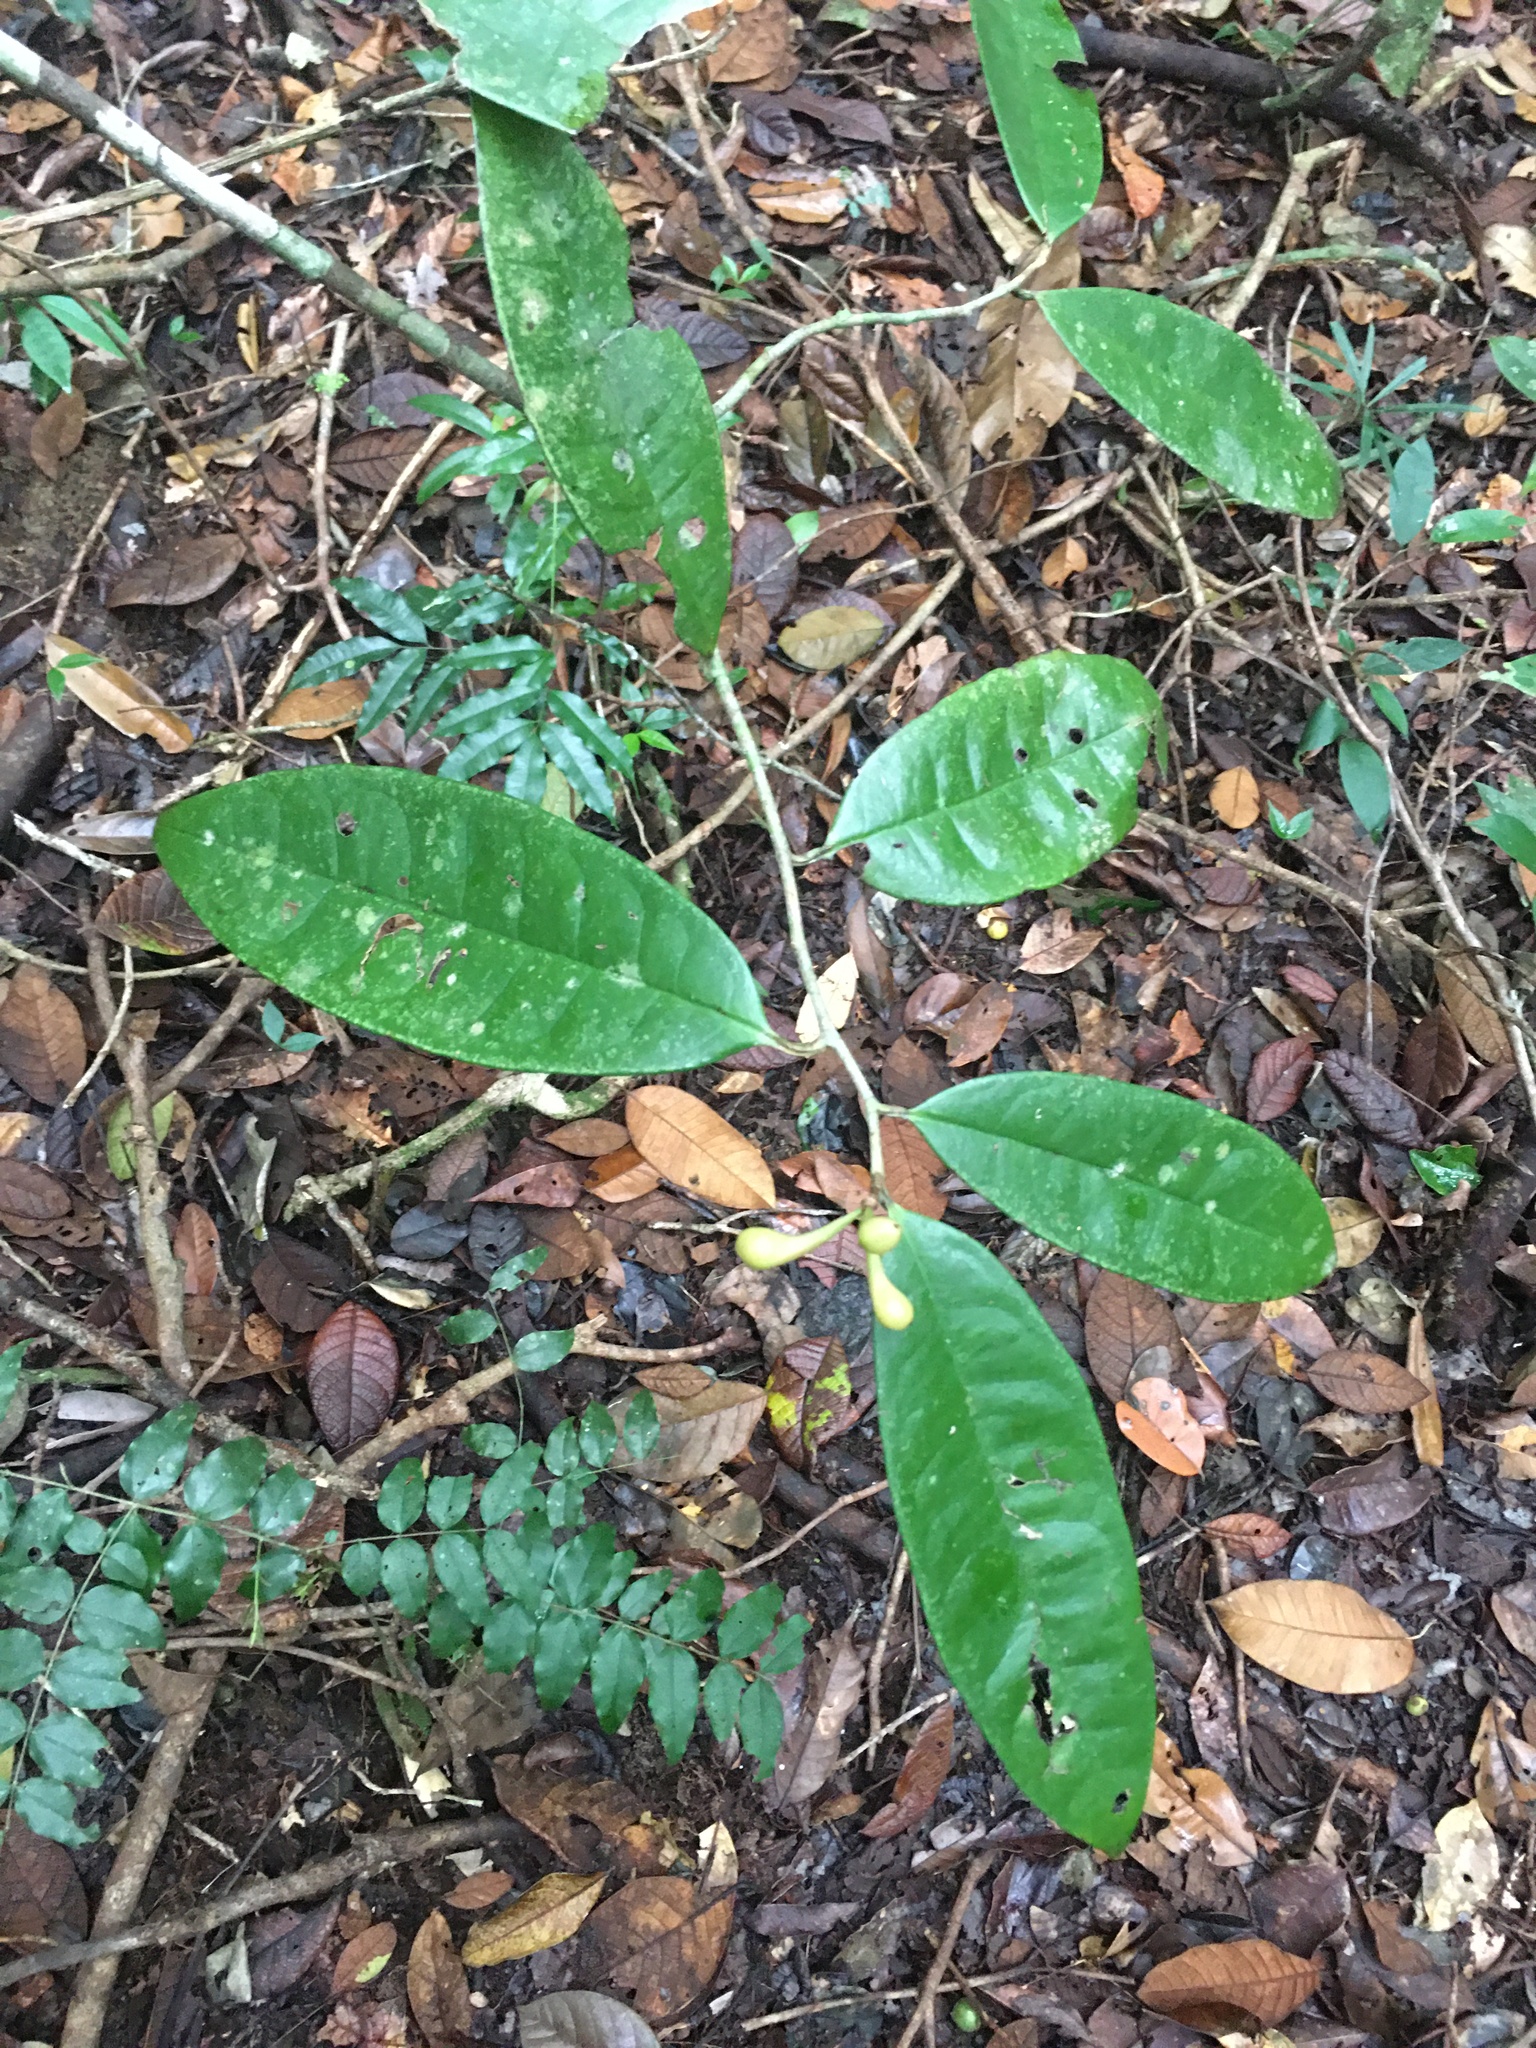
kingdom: Plantae
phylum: Tracheophyta
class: Magnoliopsida
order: Magnoliales
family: Annonaceae
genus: Anaxagorea
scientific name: Anaxagorea dolichocarpa
